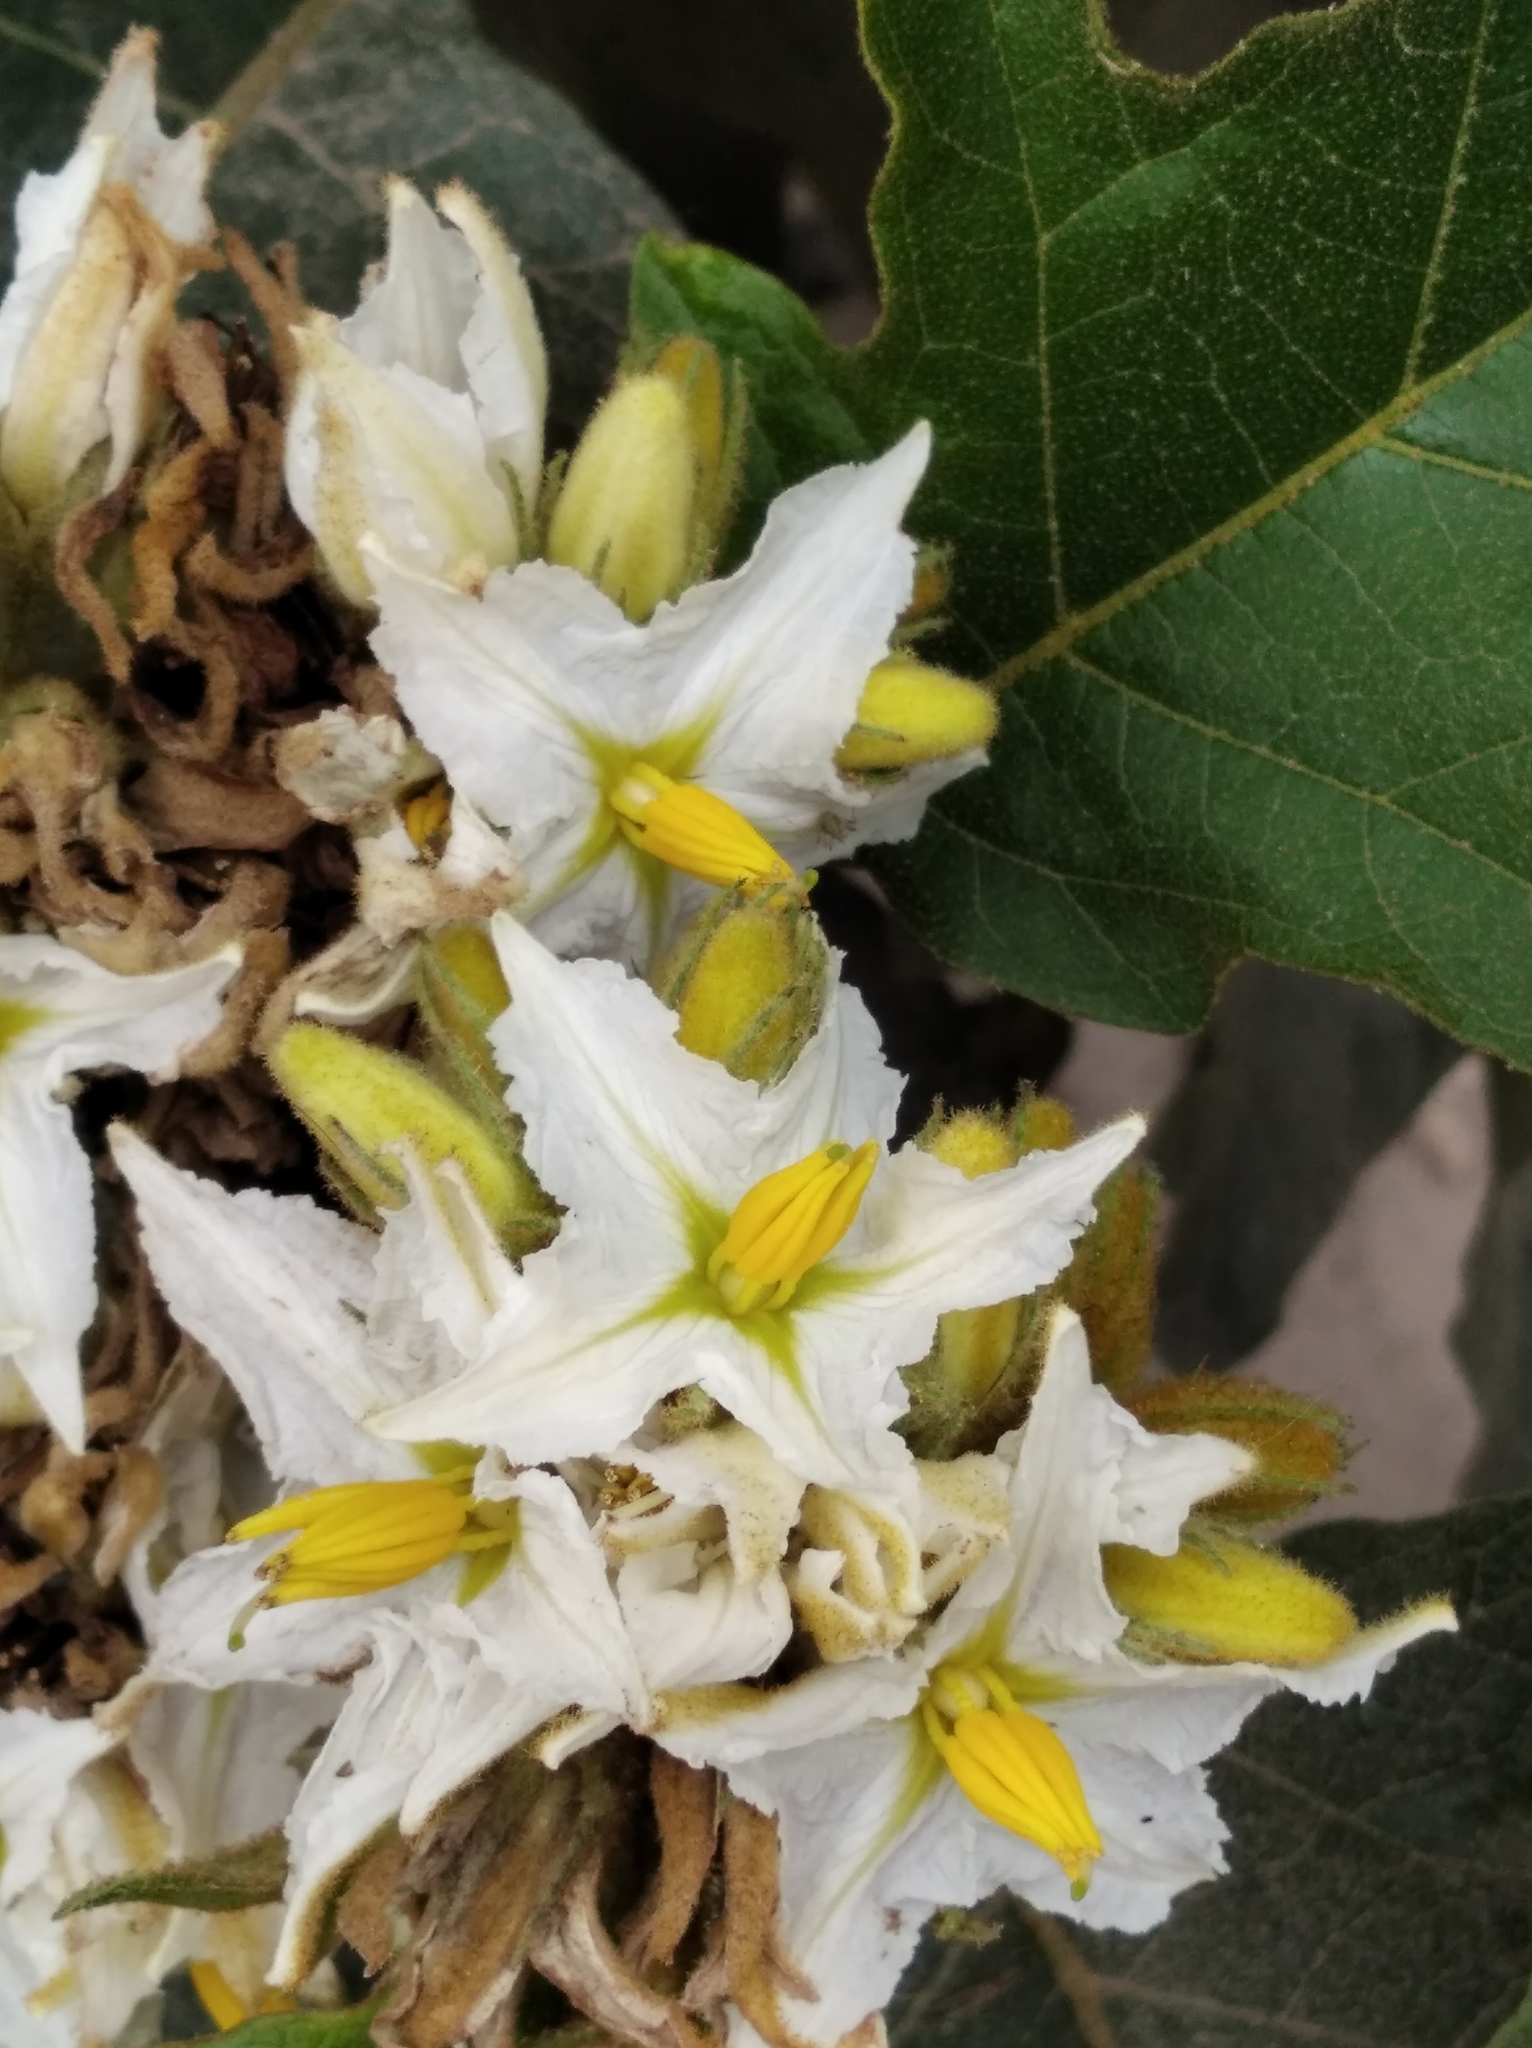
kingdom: Plantae
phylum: Tracheophyta
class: Magnoliopsida
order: Solanales
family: Solanaceae
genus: Solanum
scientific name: Solanum chrysotrichum
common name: Nightshade
